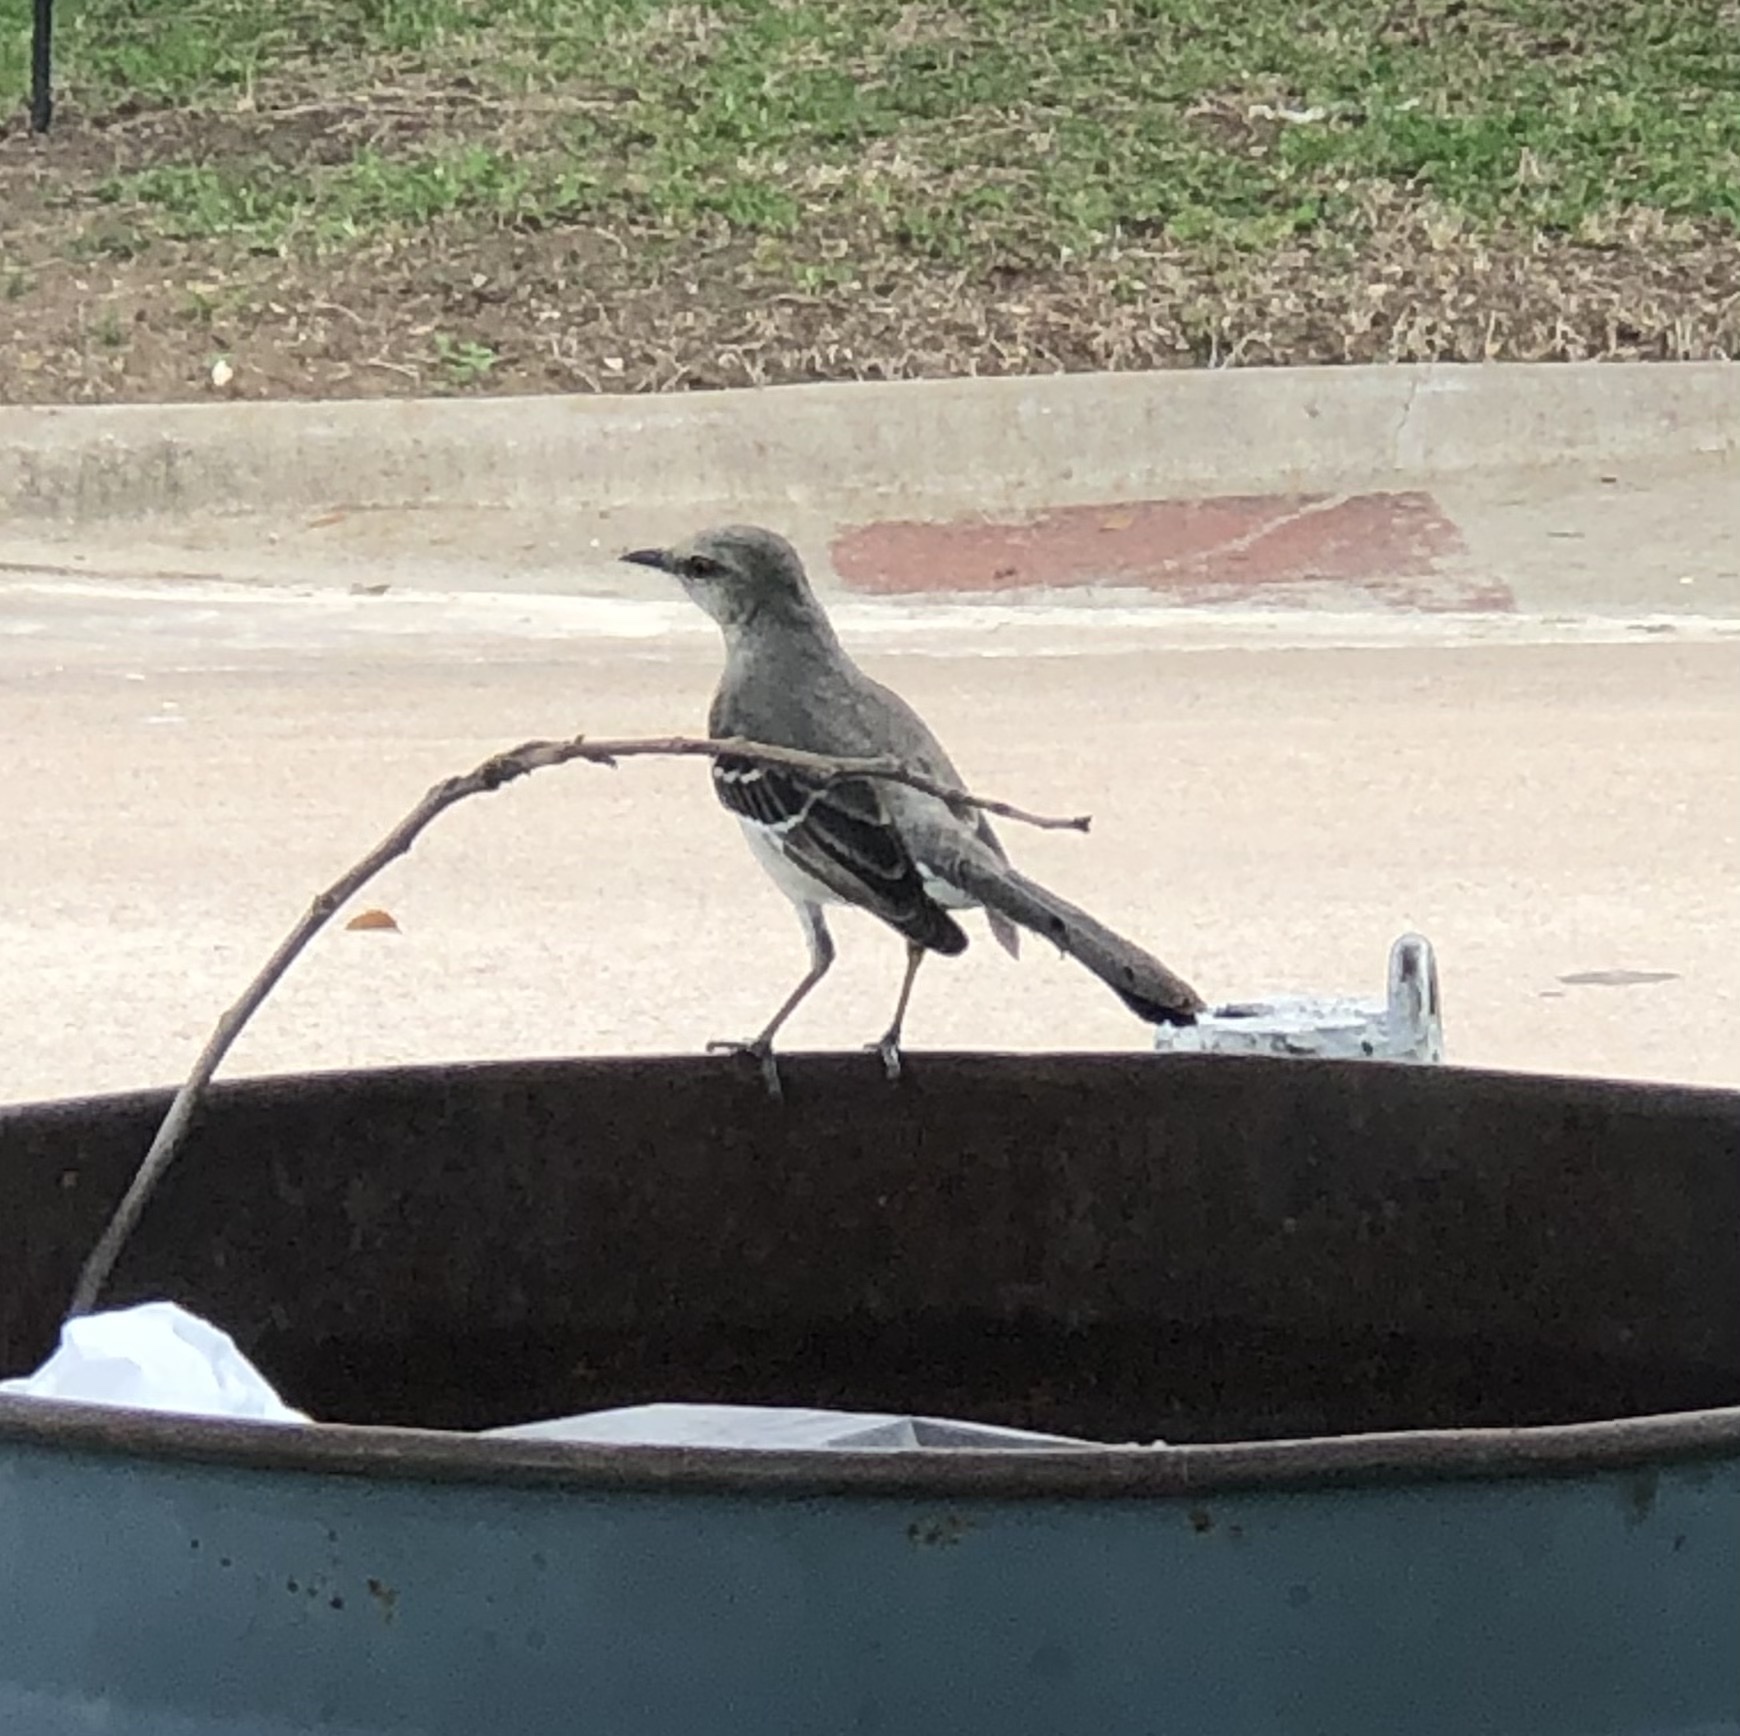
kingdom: Animalia
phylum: Chordata
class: Aves
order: Passeriformes
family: Mimidae
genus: Mimus
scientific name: Mimus polyglottos
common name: Northern mockingbird
